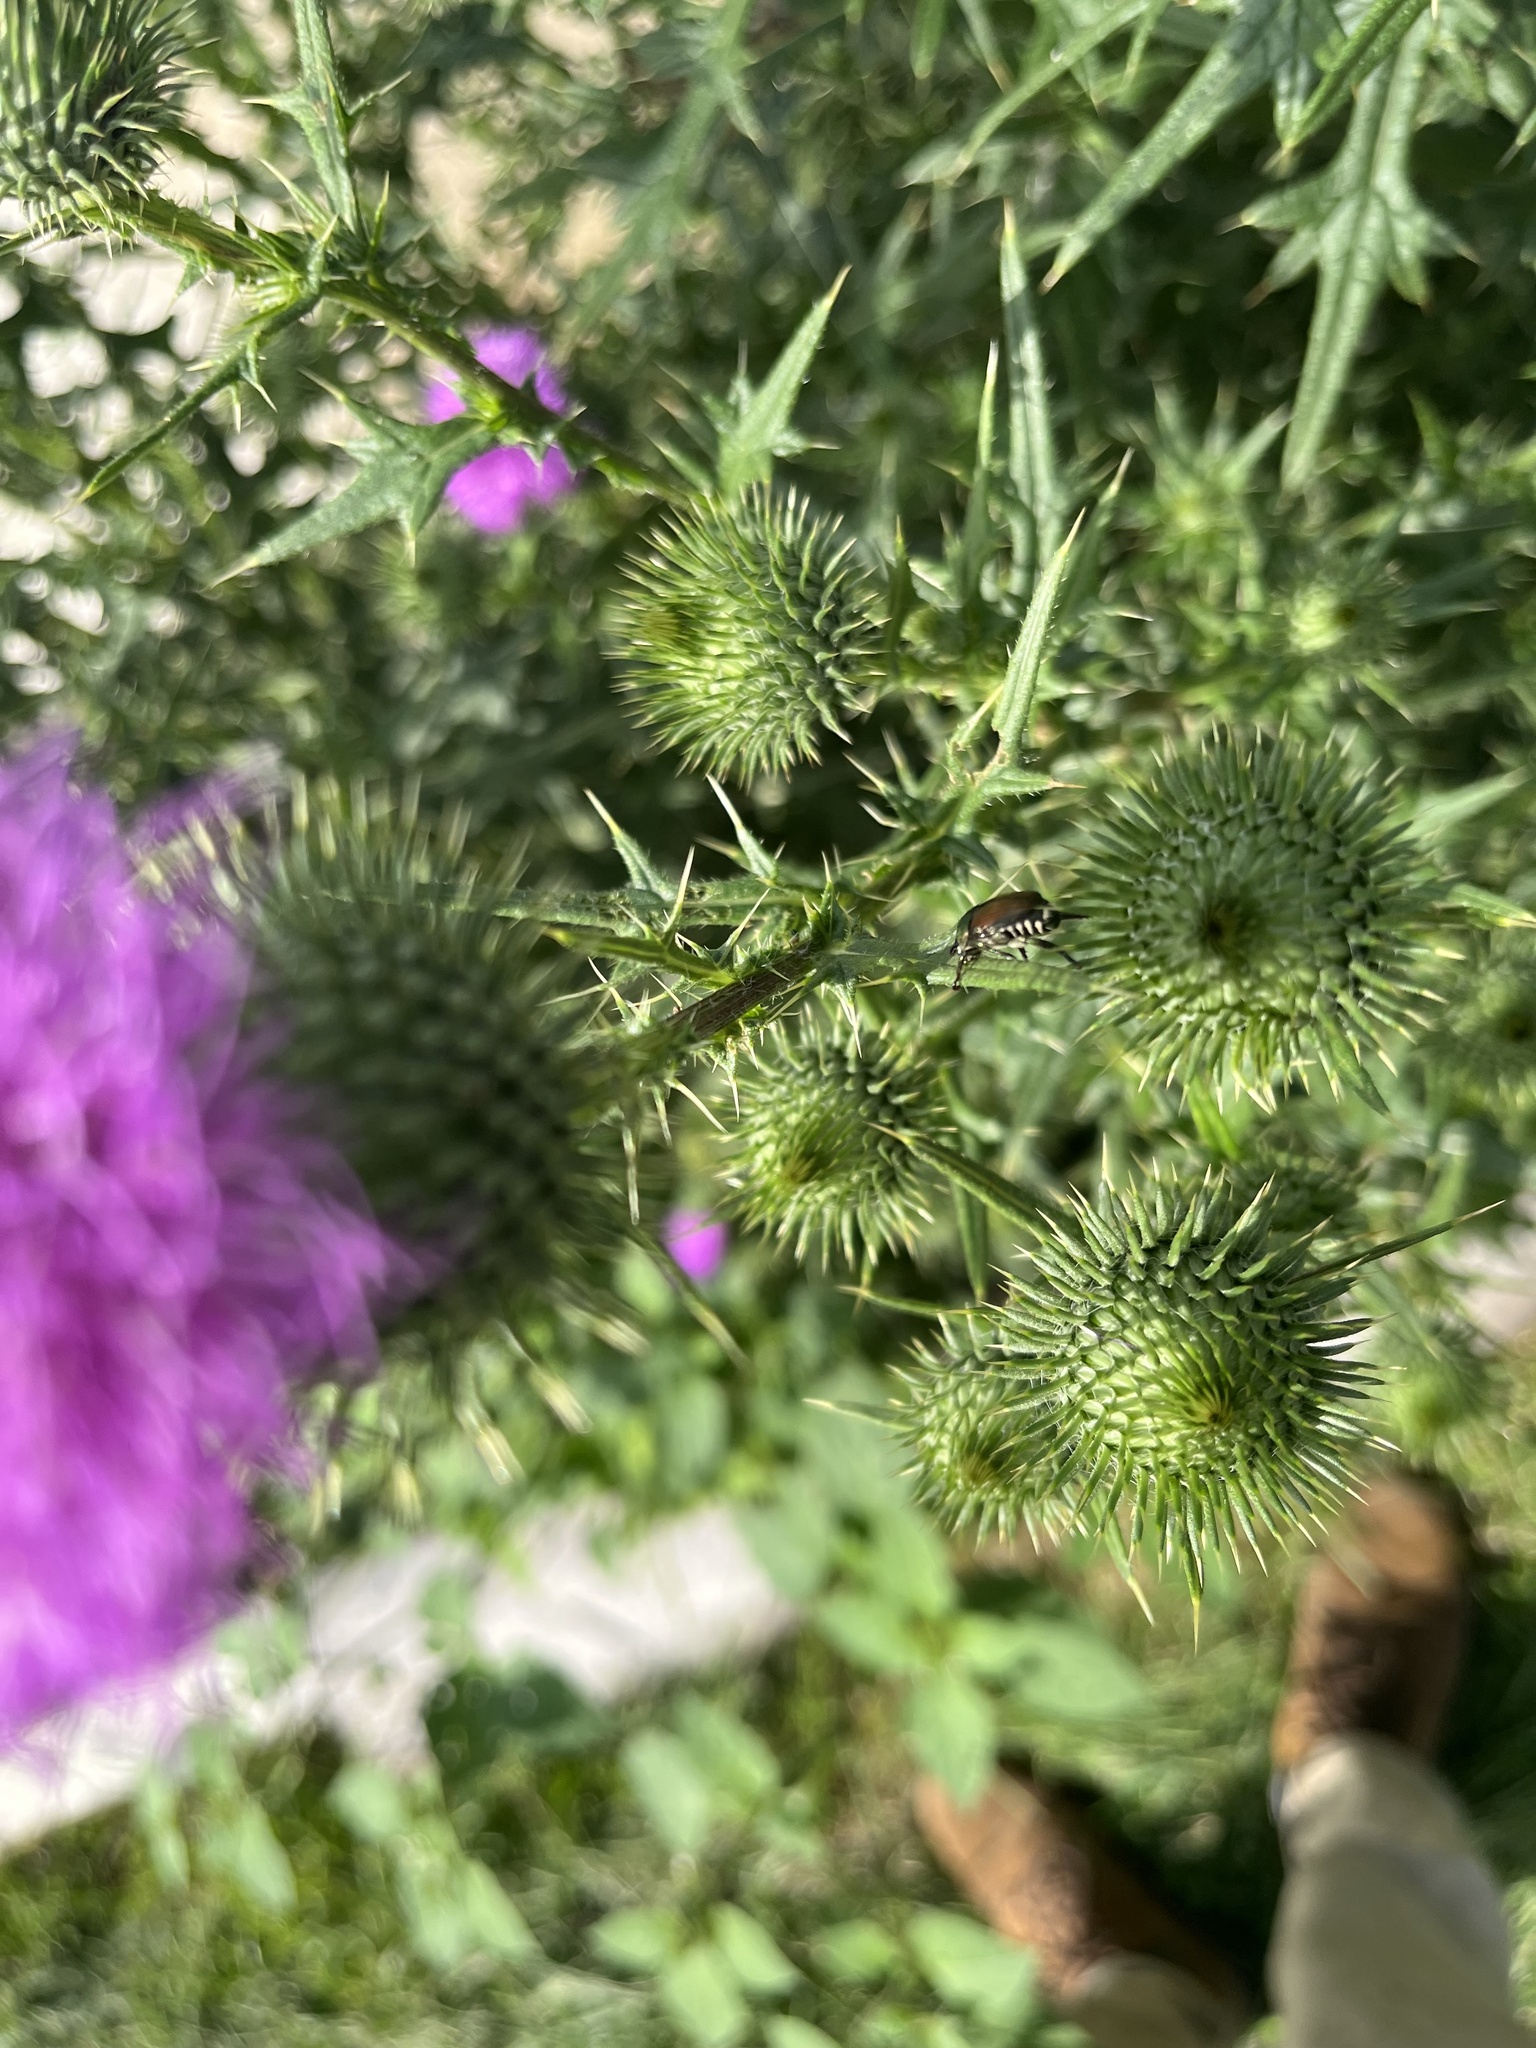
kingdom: Animalia
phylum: Arthropoda
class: Insecta
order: Coleoptera
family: Scarabaeidae
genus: Popillia
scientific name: Popillia japonica
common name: Japanese beetle
